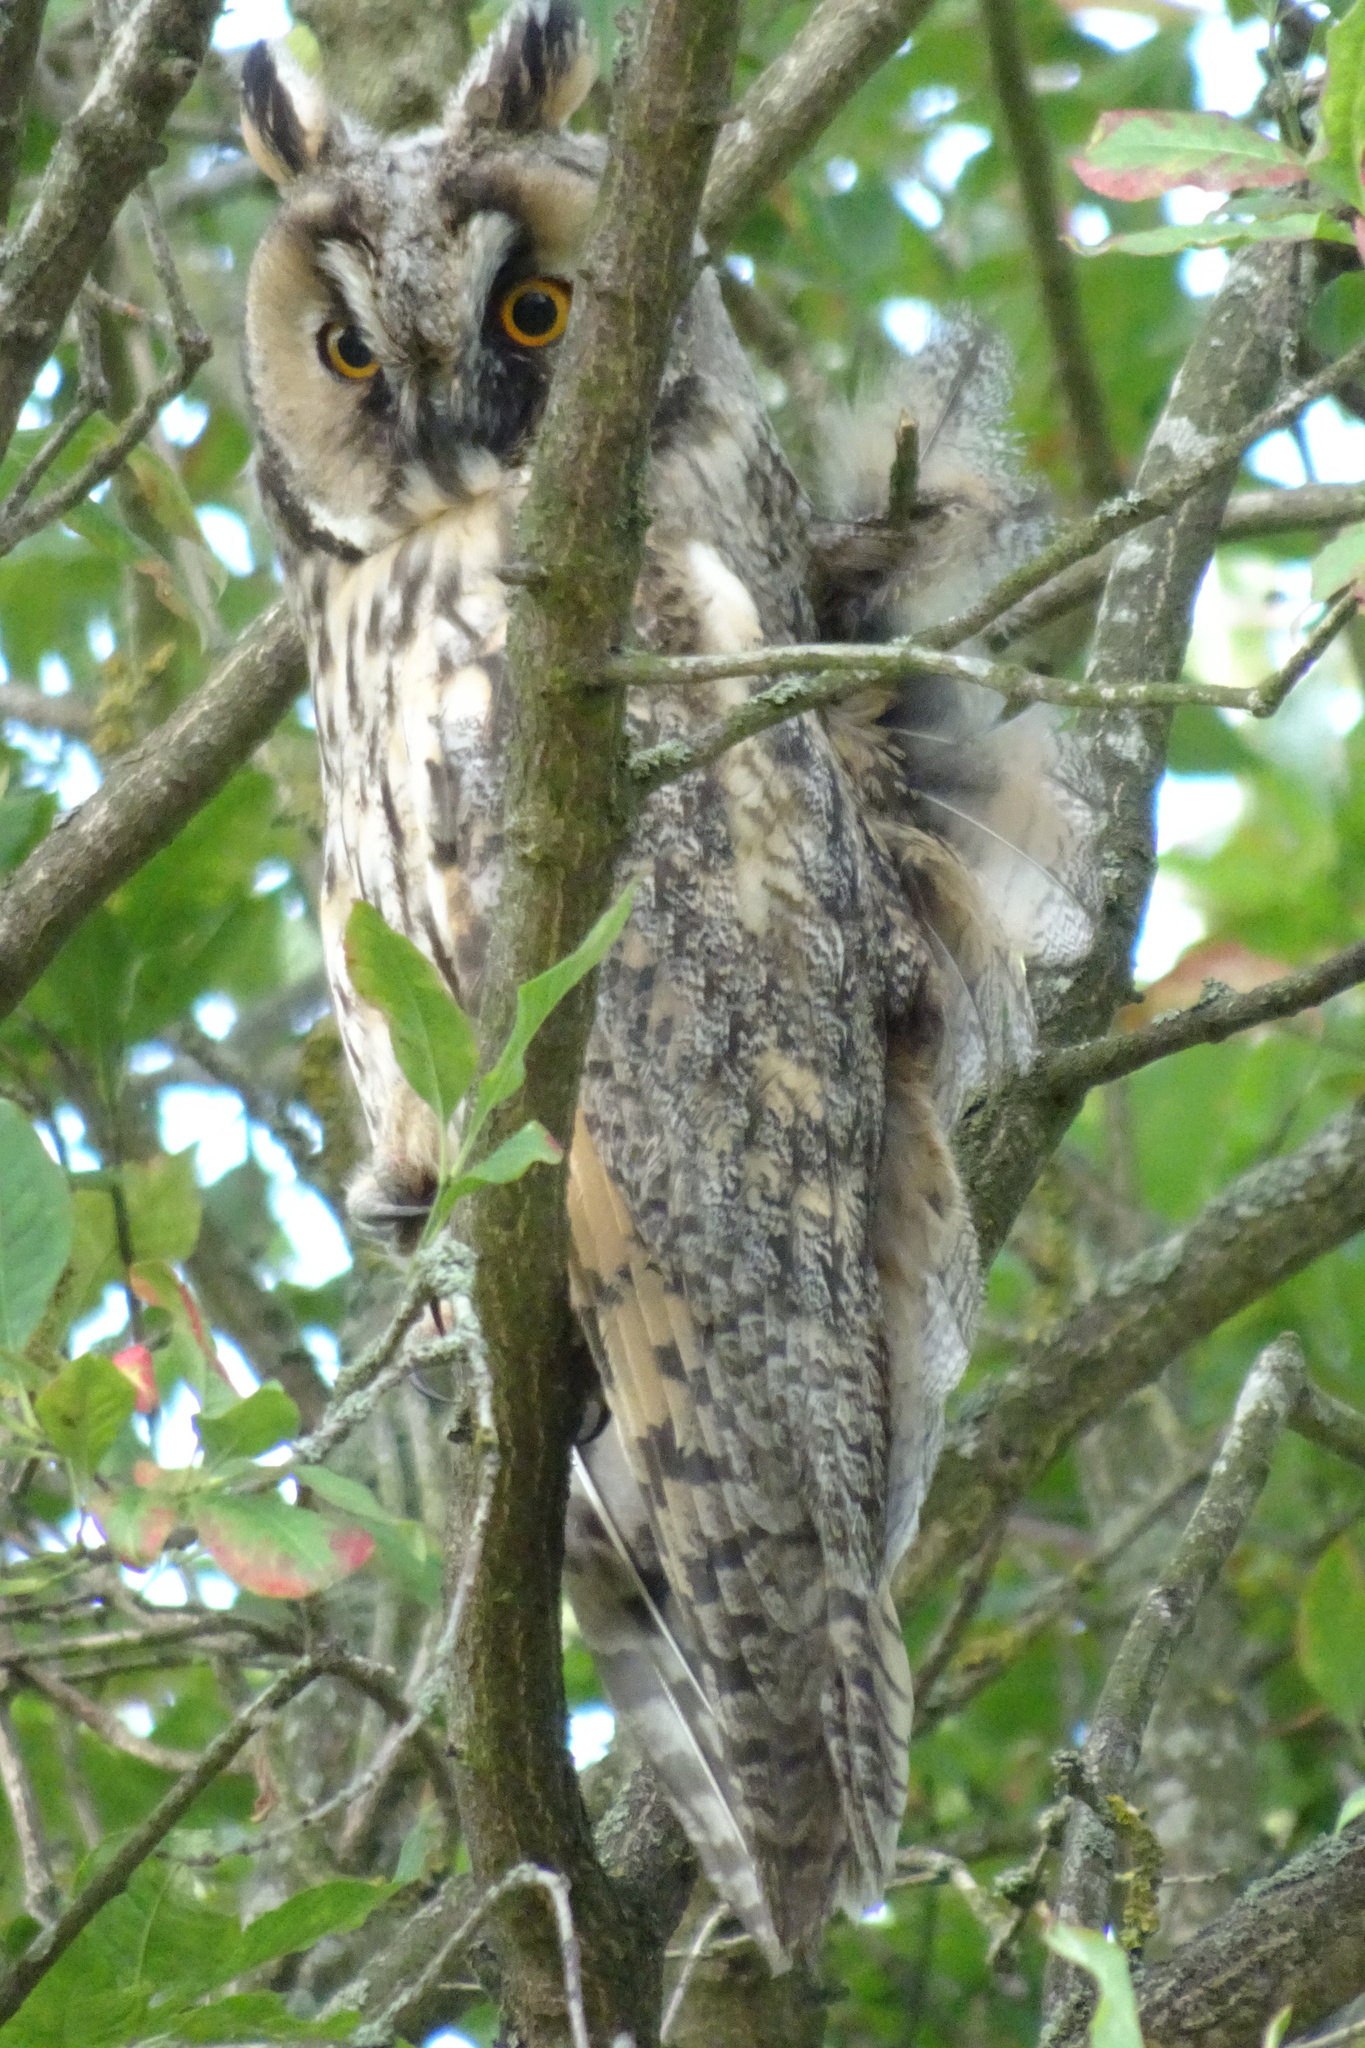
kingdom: Animalia
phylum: Chordata
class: Aves
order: Strigiformes
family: Strigidae
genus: Asio
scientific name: Asio otus
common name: Long-eared owl
